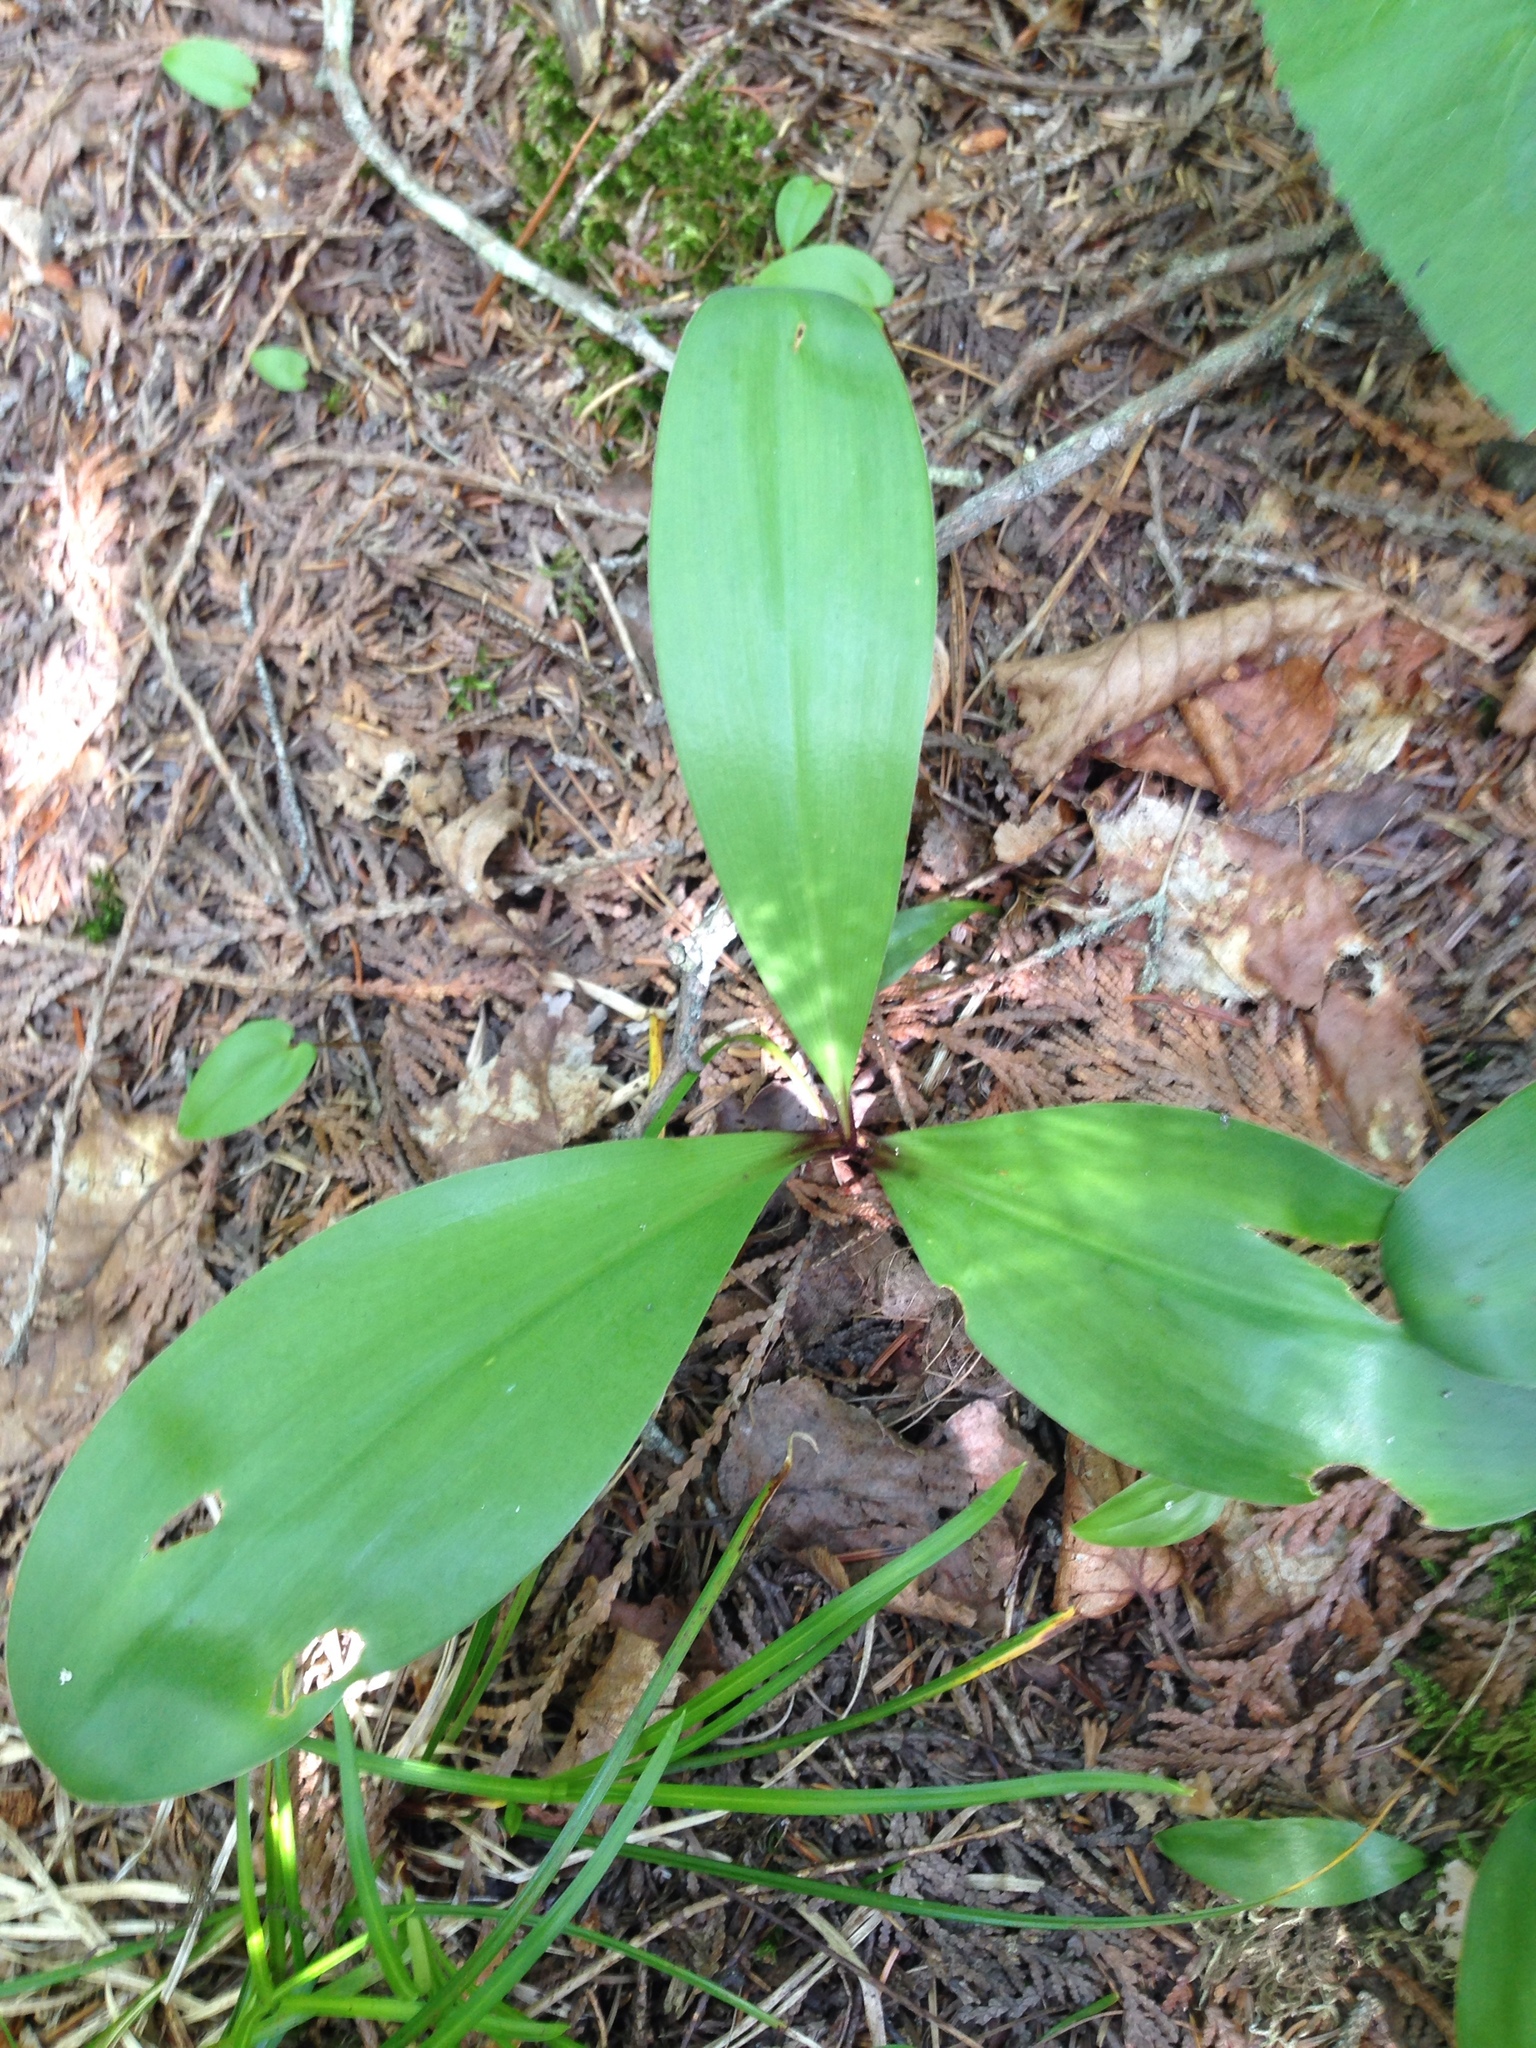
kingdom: Plantae
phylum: Tracheophyta
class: Liliopsida
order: Liliales
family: Liliaceae
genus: Clintonia
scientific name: Clintonia borealis
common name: Yellow clintonia
